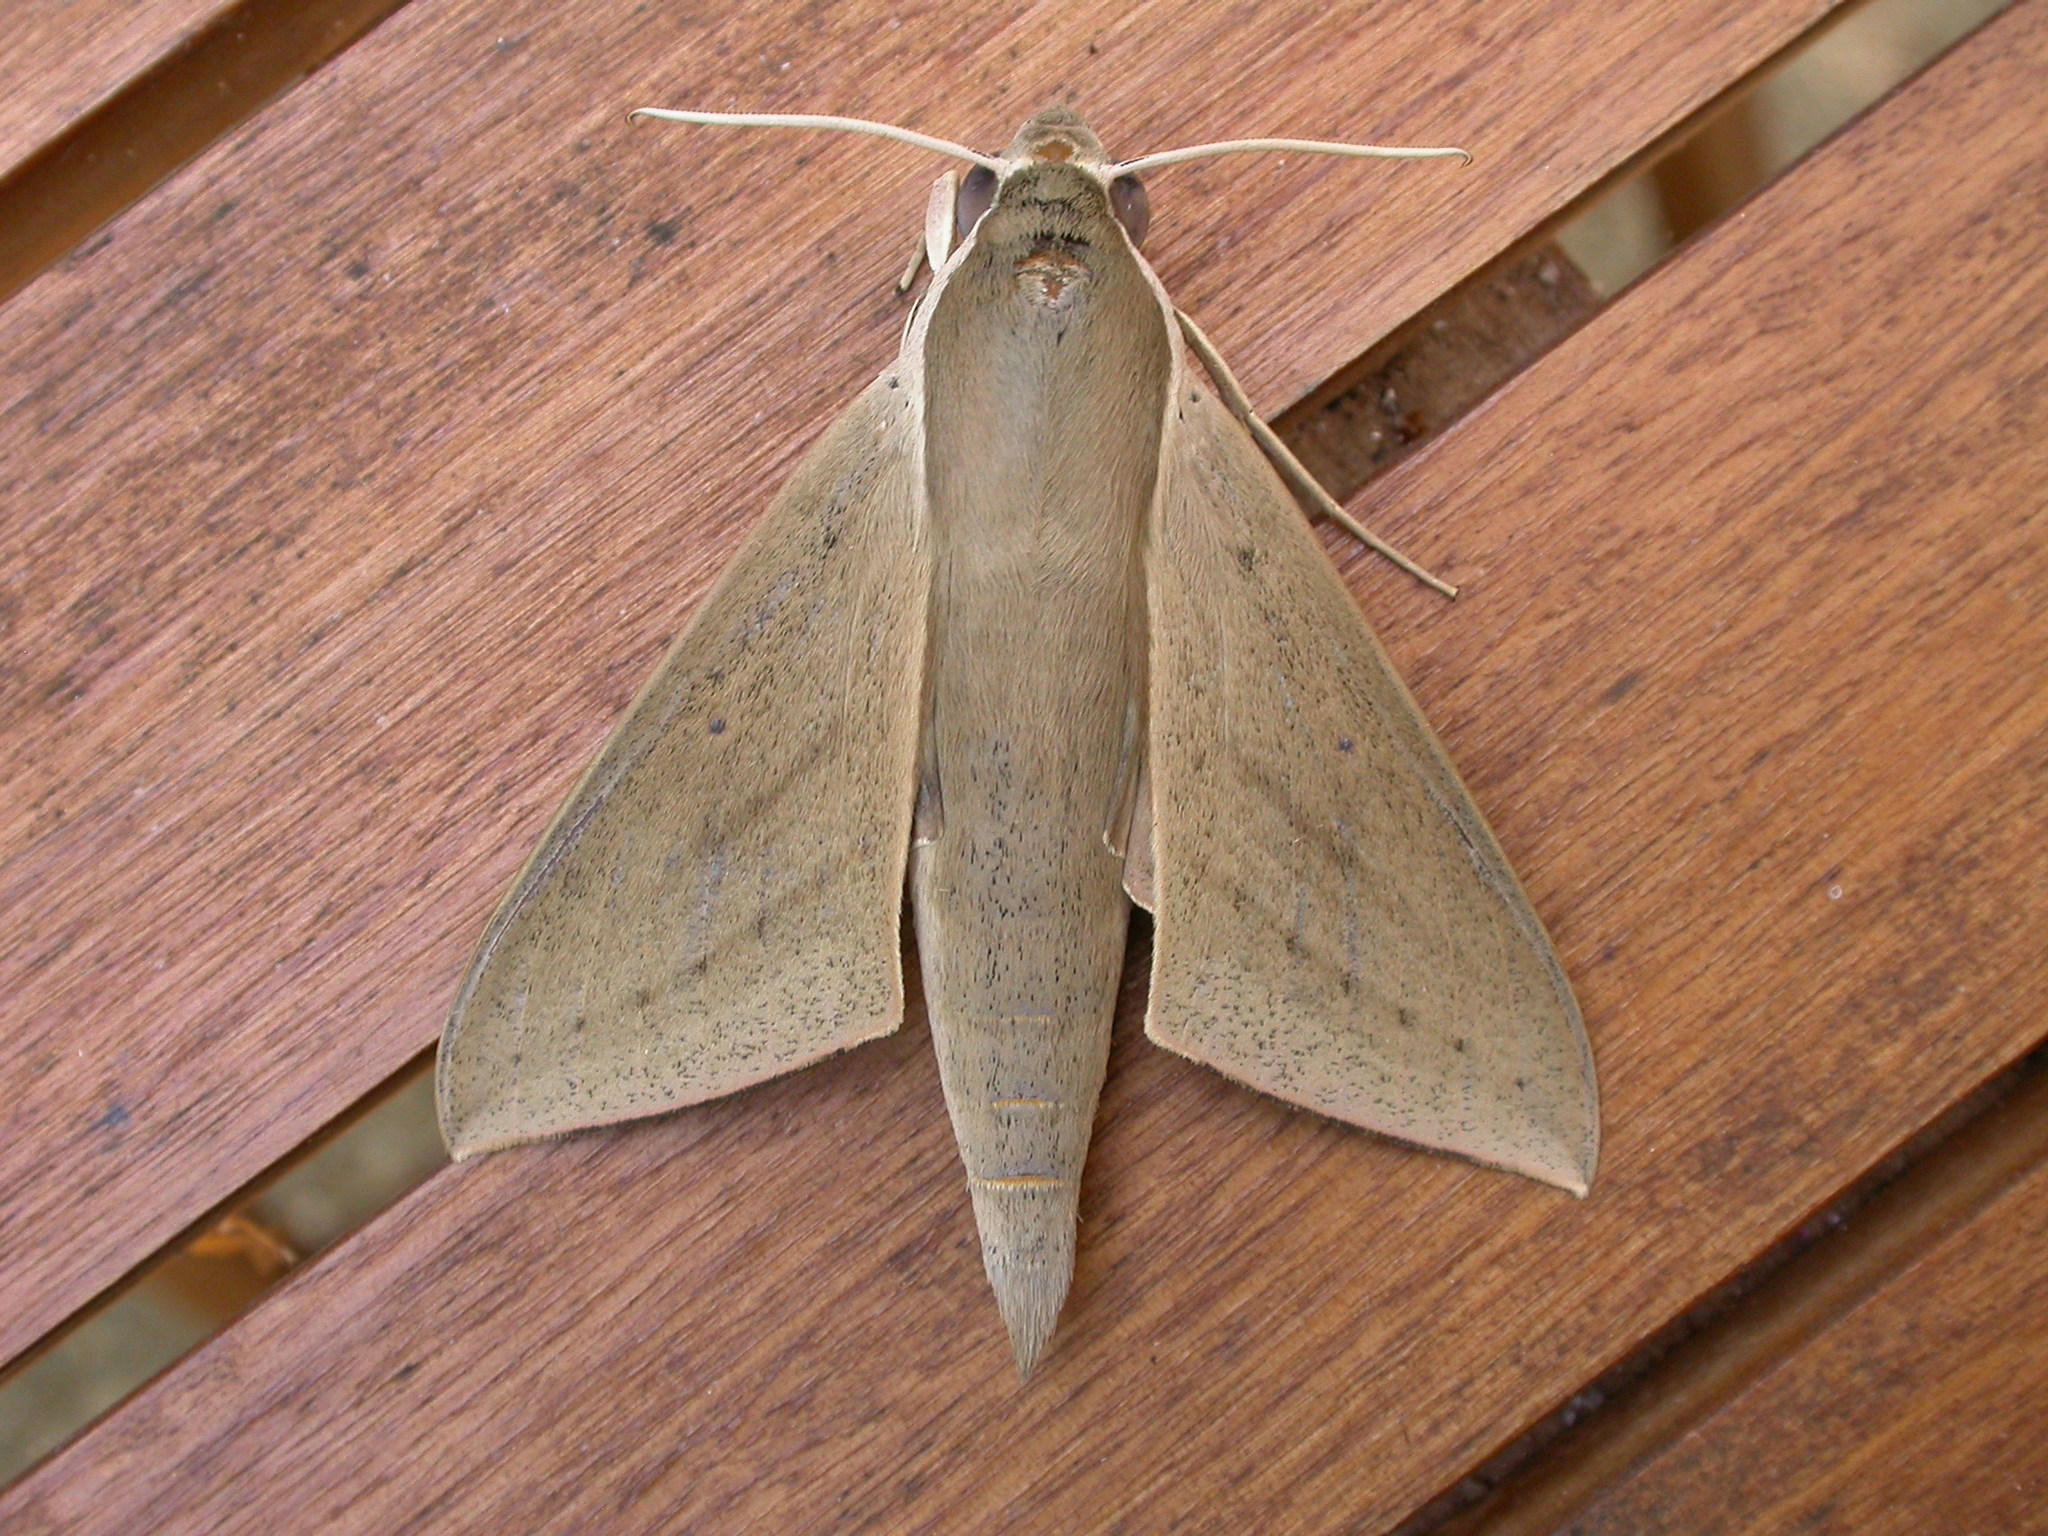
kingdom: Animalia
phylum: Arthropoda
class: Insecta
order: Lepidoptera
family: Sphingidae
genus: Theretra
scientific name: Theretra latreillii
